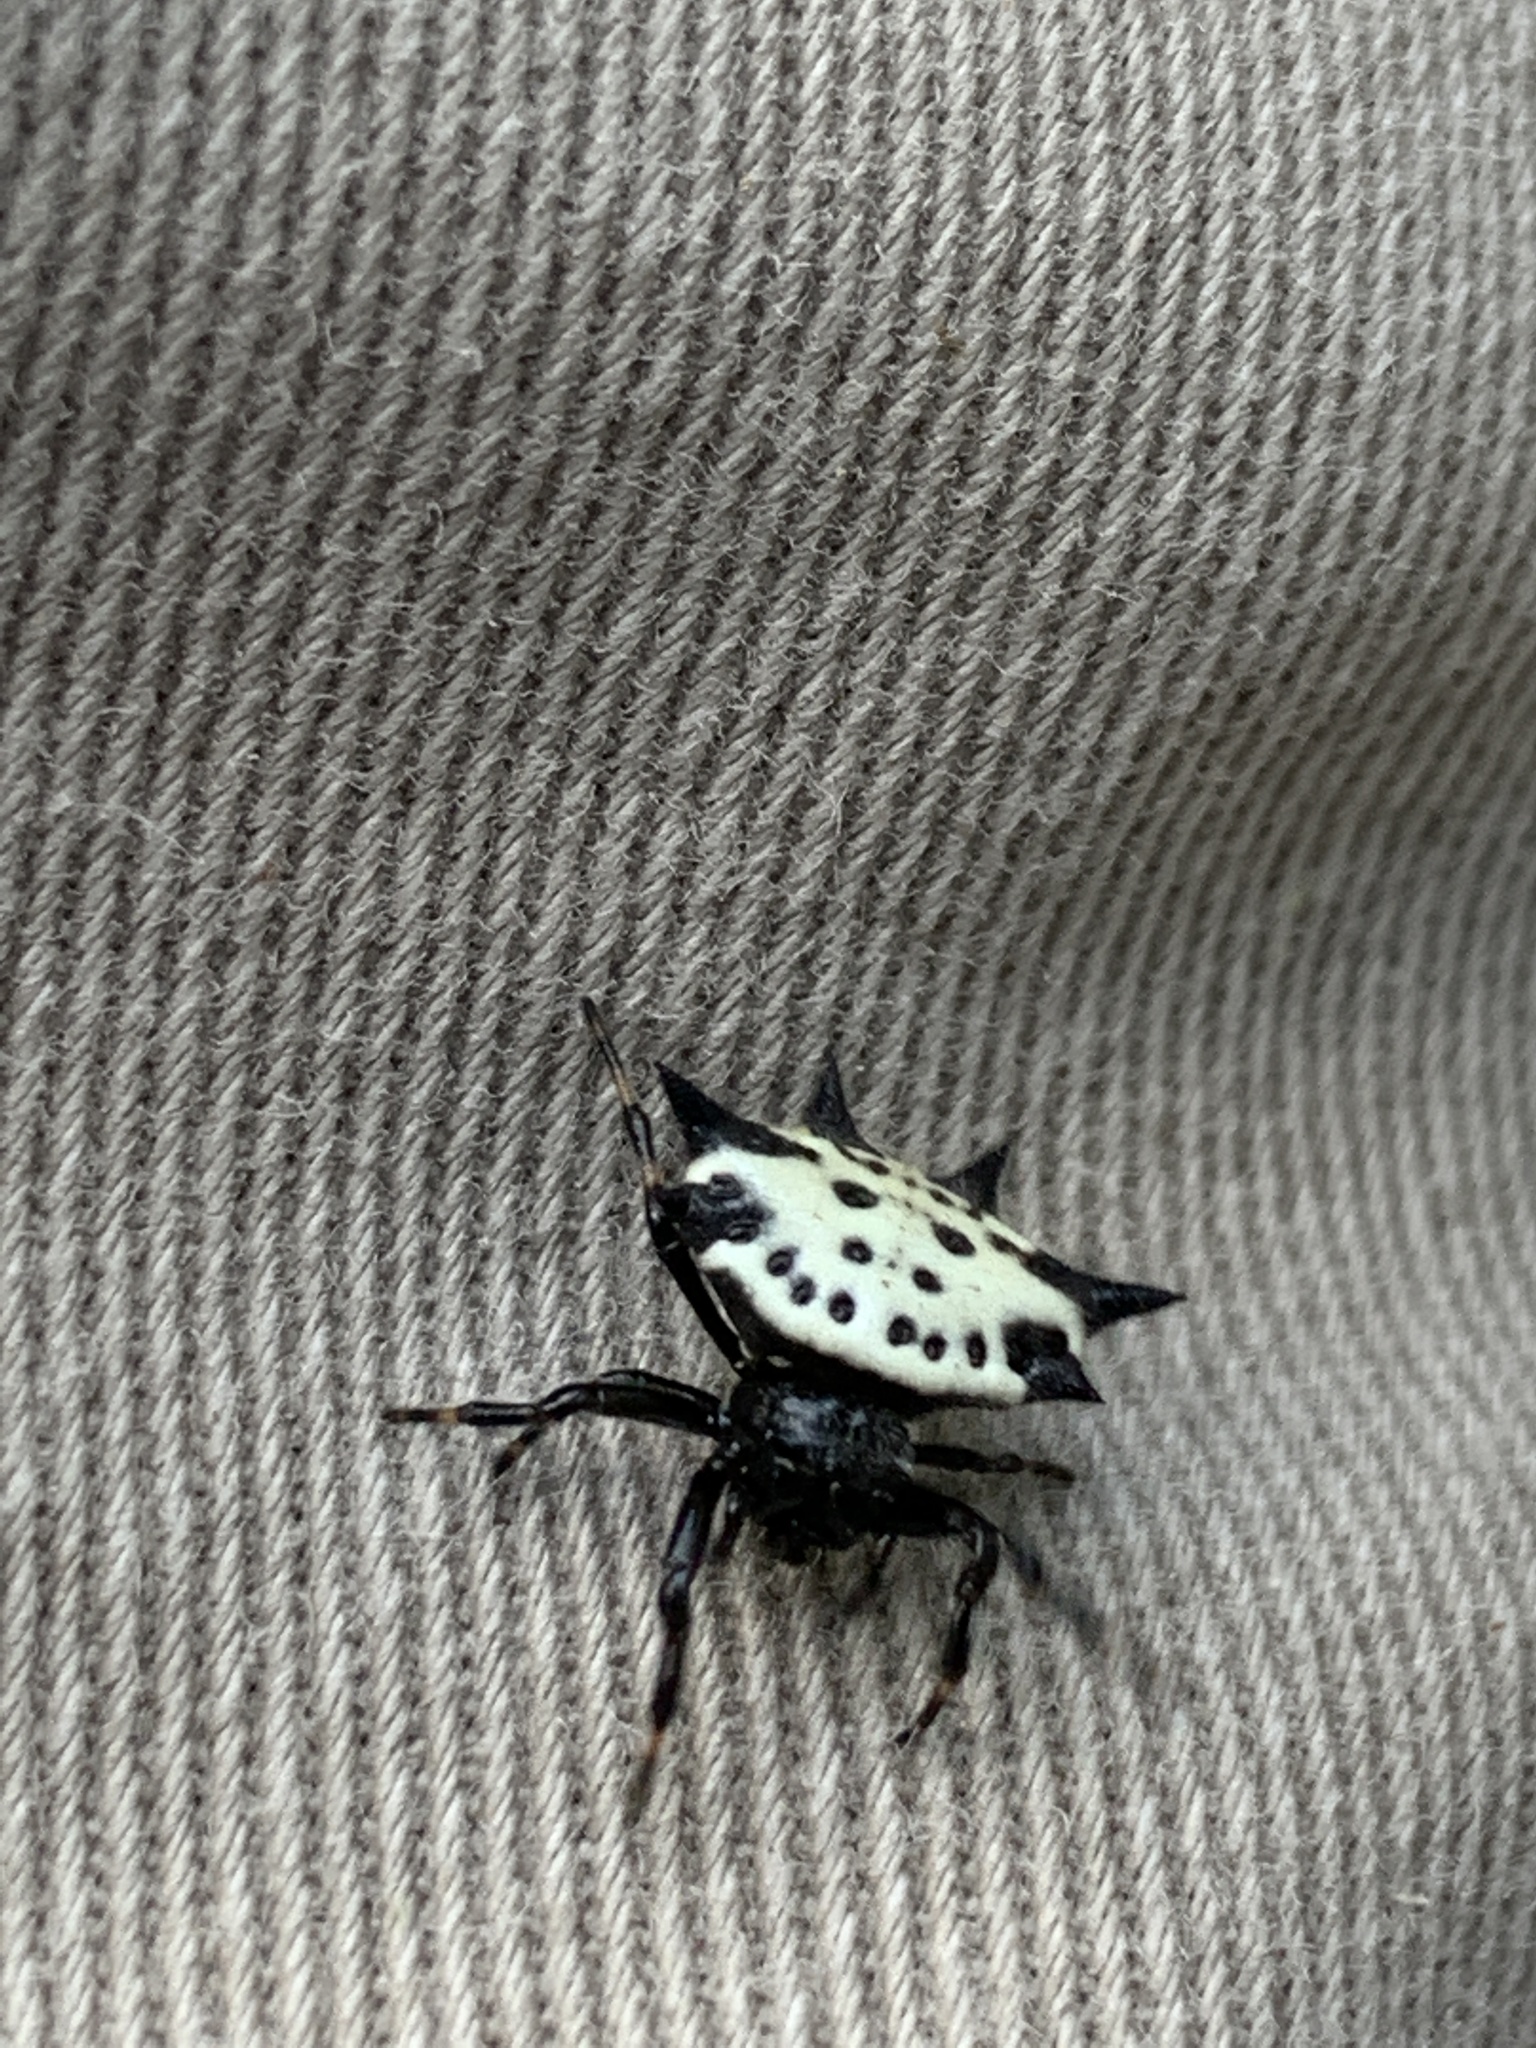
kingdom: Animalia
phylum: Arthropoda
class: Arachnida
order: Araneae
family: Araneidae
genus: Gasteracantha
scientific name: Gasteracantha cancriformis
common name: Orb weavers
